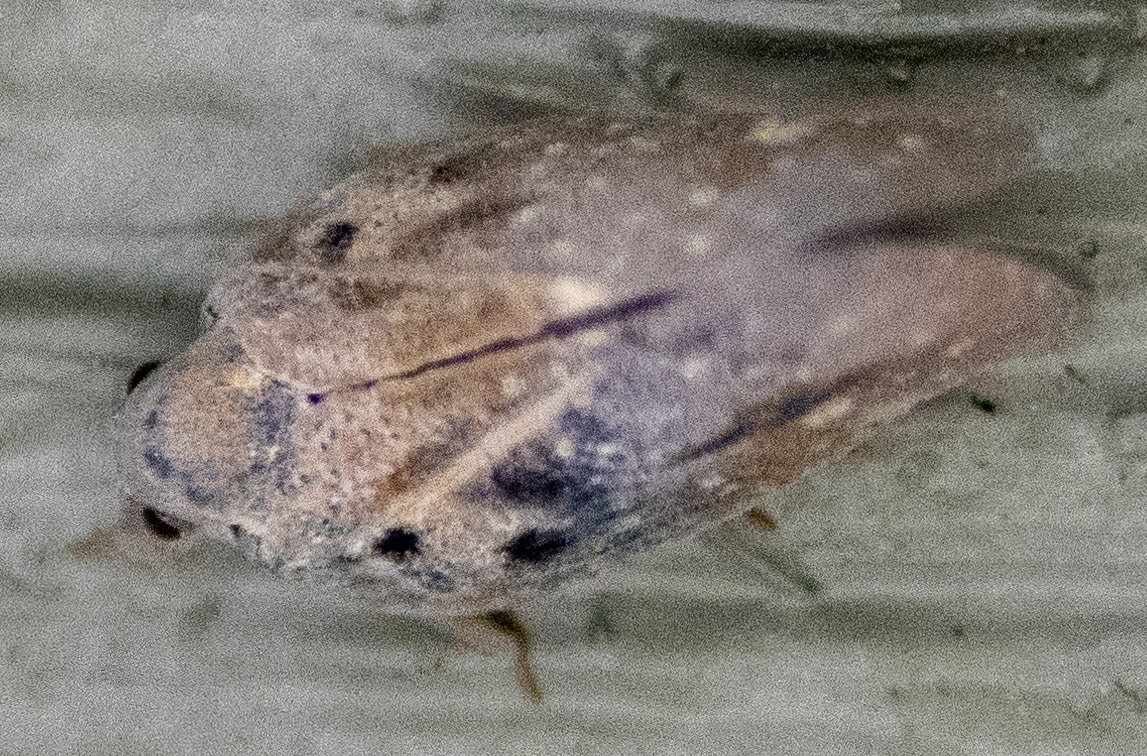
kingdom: Animalia
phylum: Arthropoda
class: Insecta
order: Hemiptera
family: Flatidae
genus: Metcalfa
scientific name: Metcalfa pruinosa
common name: Citrus flatid planthopper
